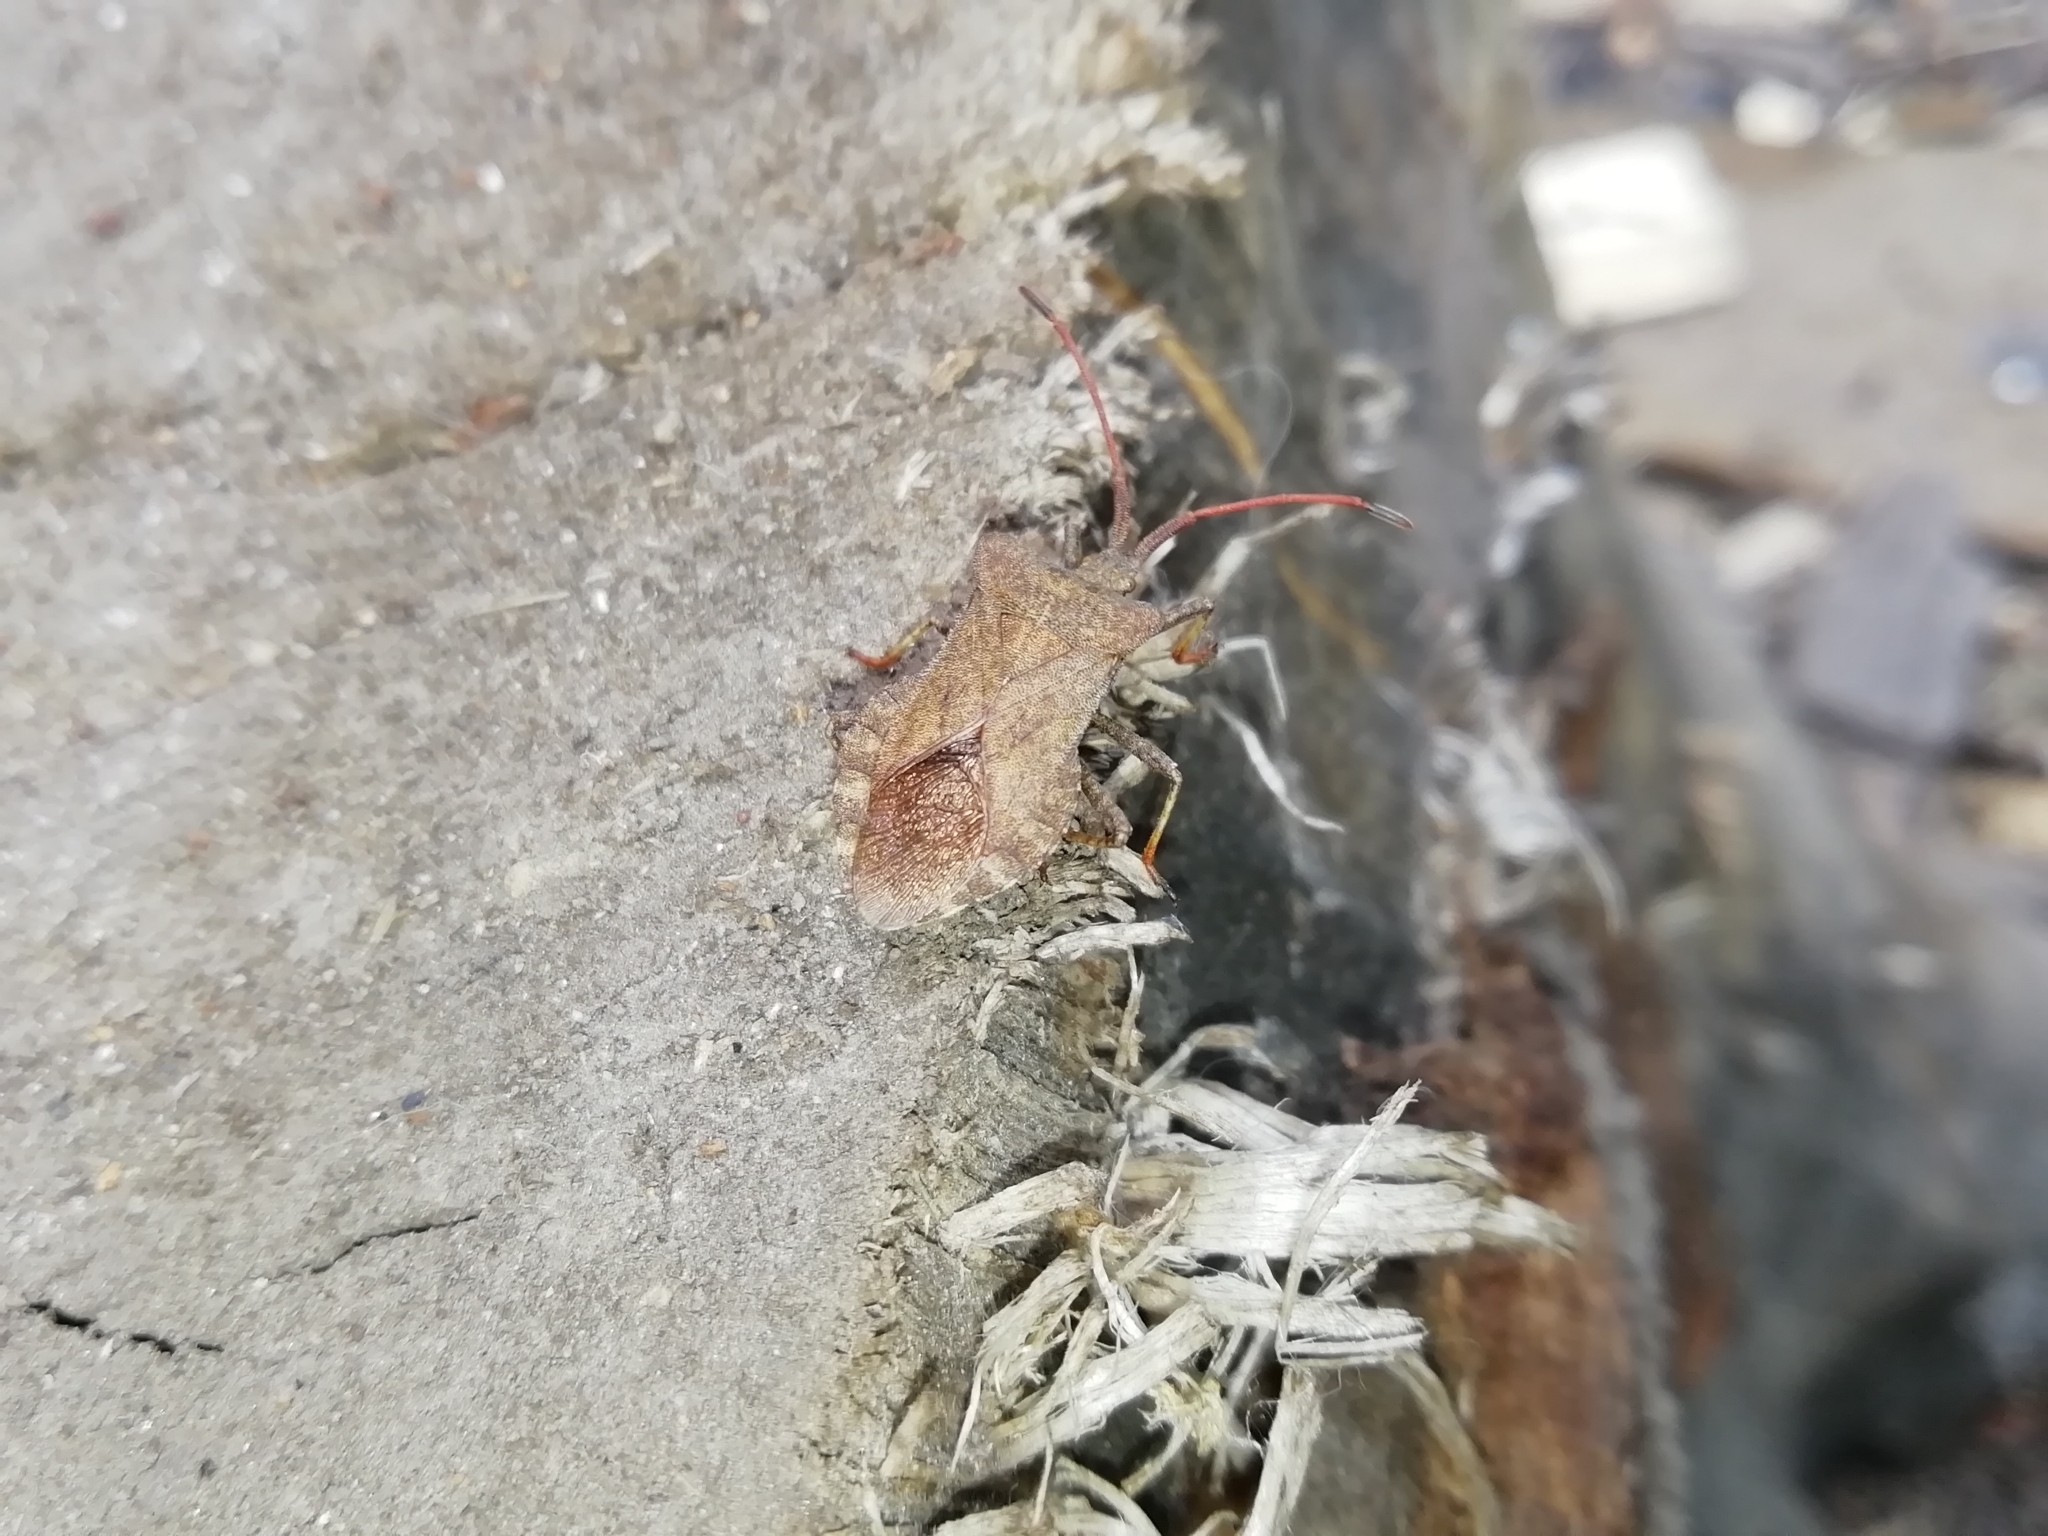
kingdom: Animalia
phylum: Arthropoda
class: Insecta
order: Hemiptera
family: Coreidae
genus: Coreus
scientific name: Coreus marginatus
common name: Dock bug
